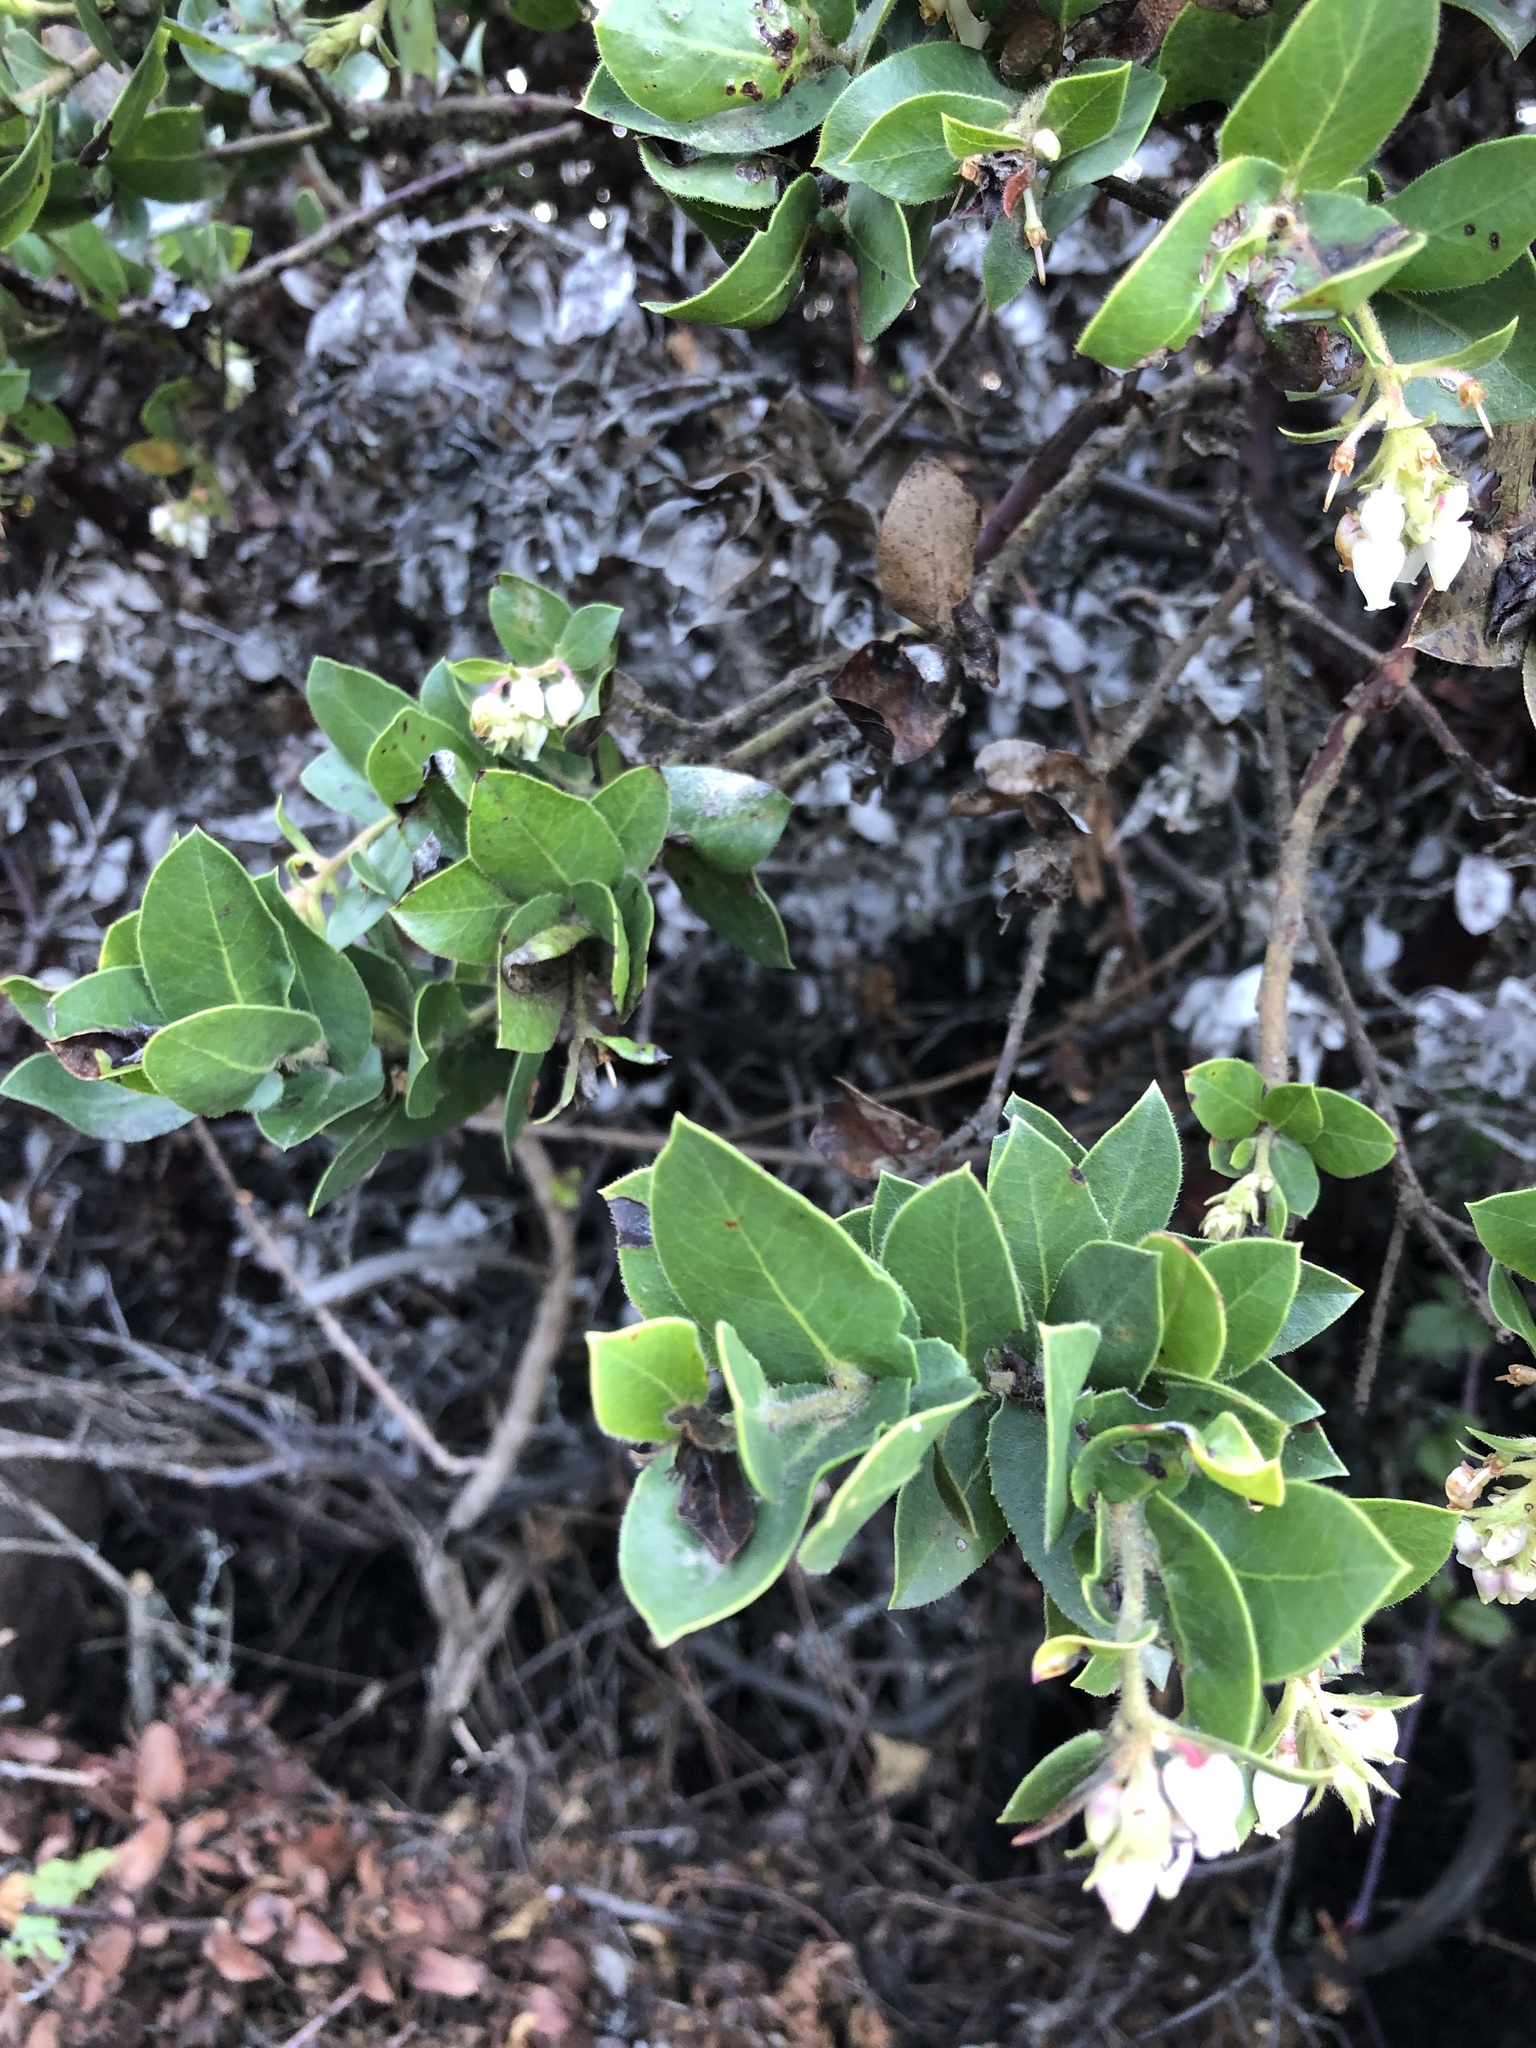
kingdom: Plantae
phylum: Tracheophyta
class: Magnoliopsida
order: Ericales
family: Ericaceae
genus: Arctostaphylos
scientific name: Arctostaphylos montaraensis
